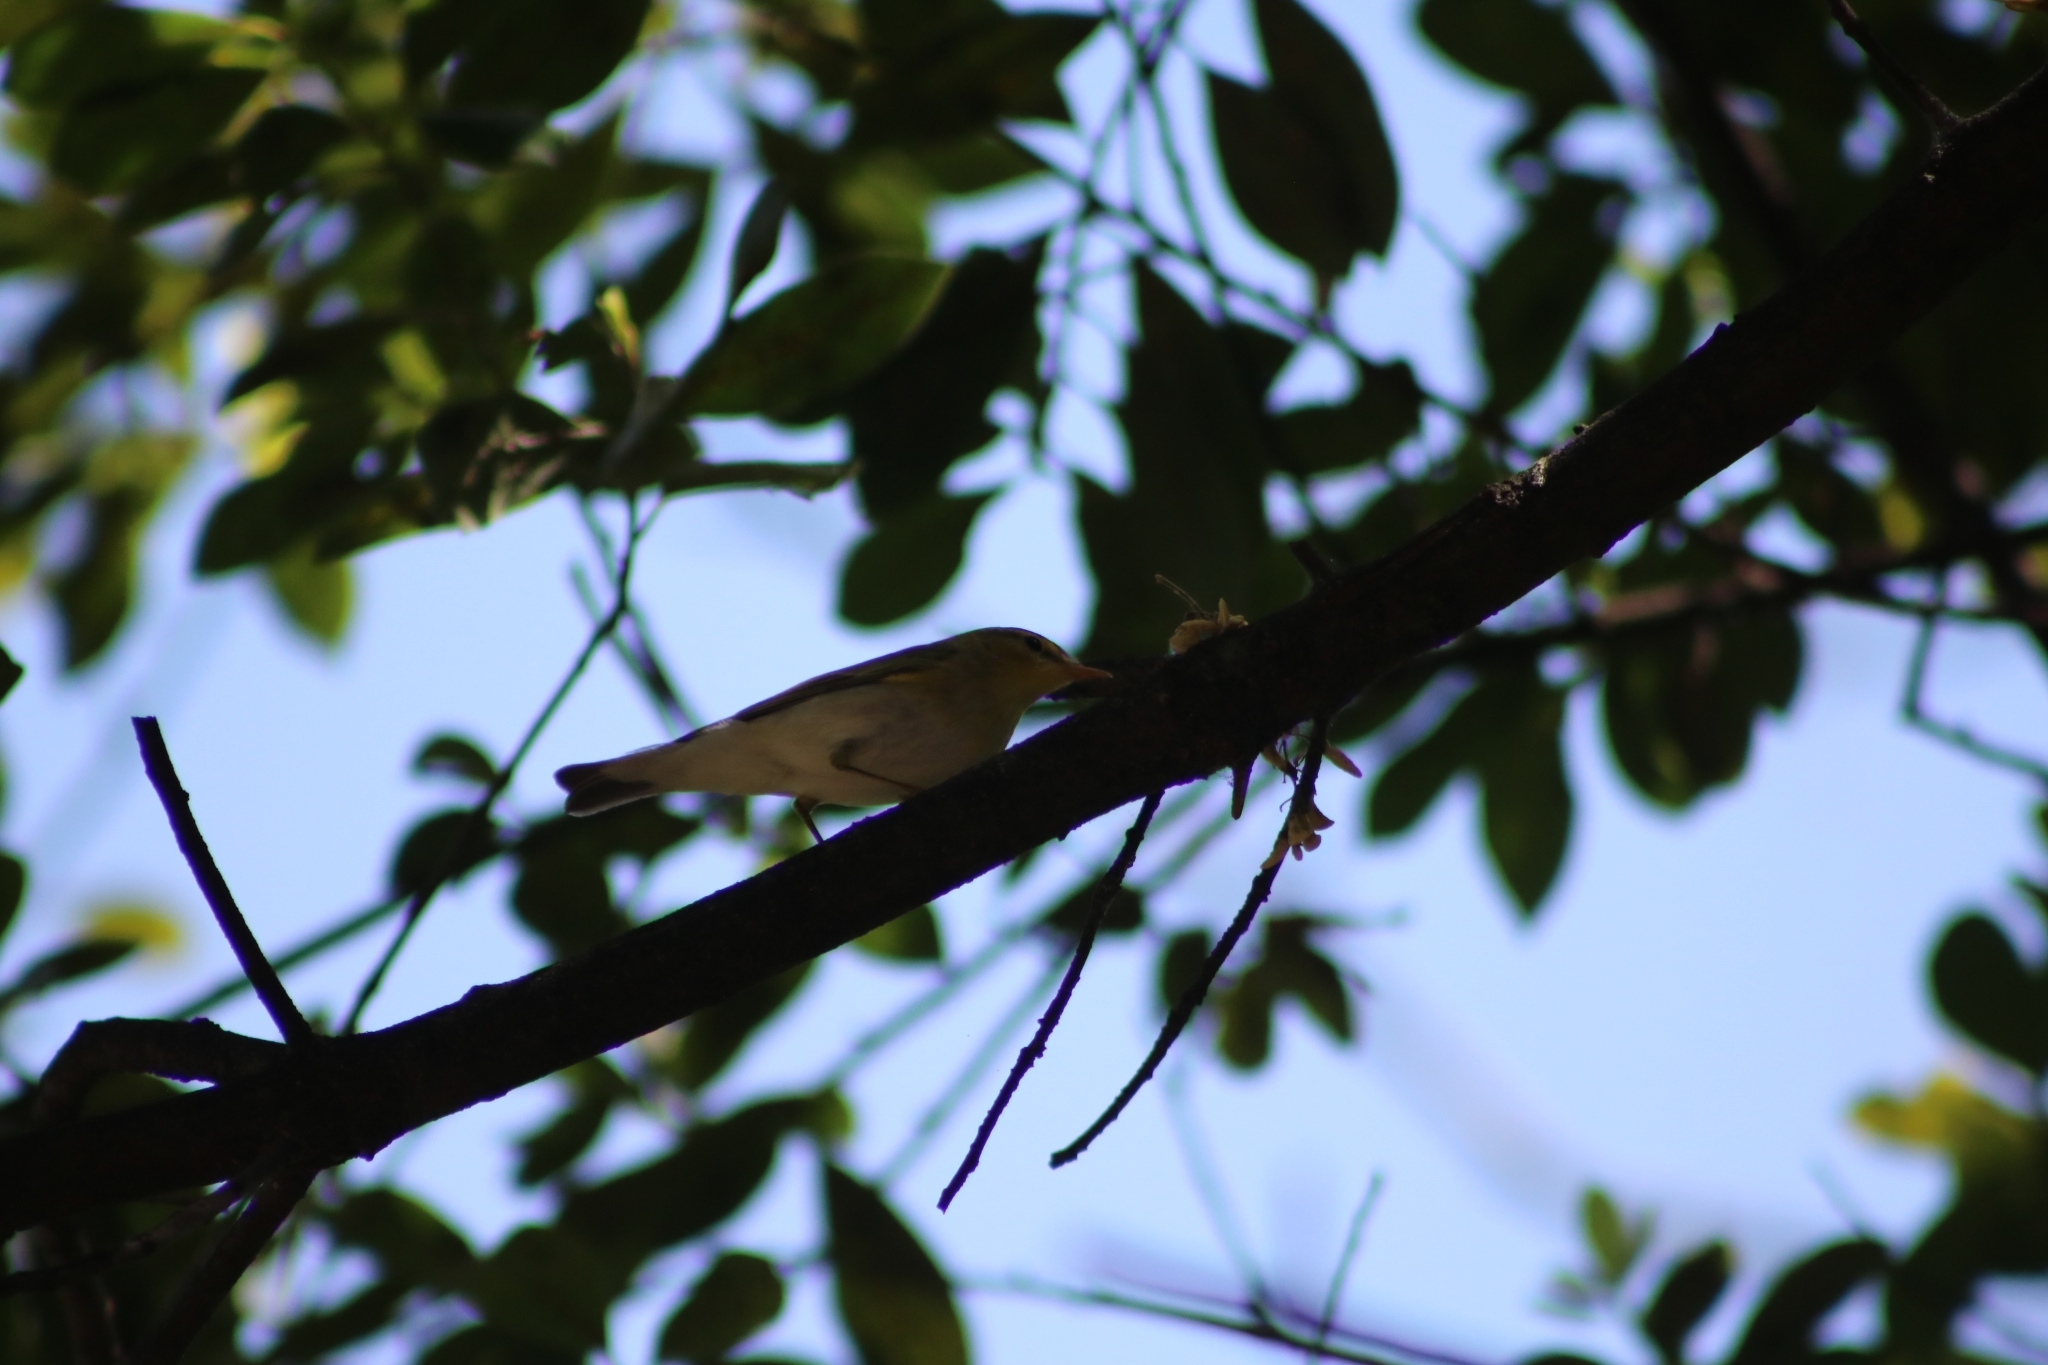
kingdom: Animalia
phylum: Chordata
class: Aves
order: Passeriformes
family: Phylloscopidae
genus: Phylloscopus
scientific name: Phylloscopus sibillatrix
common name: Wood warbler
